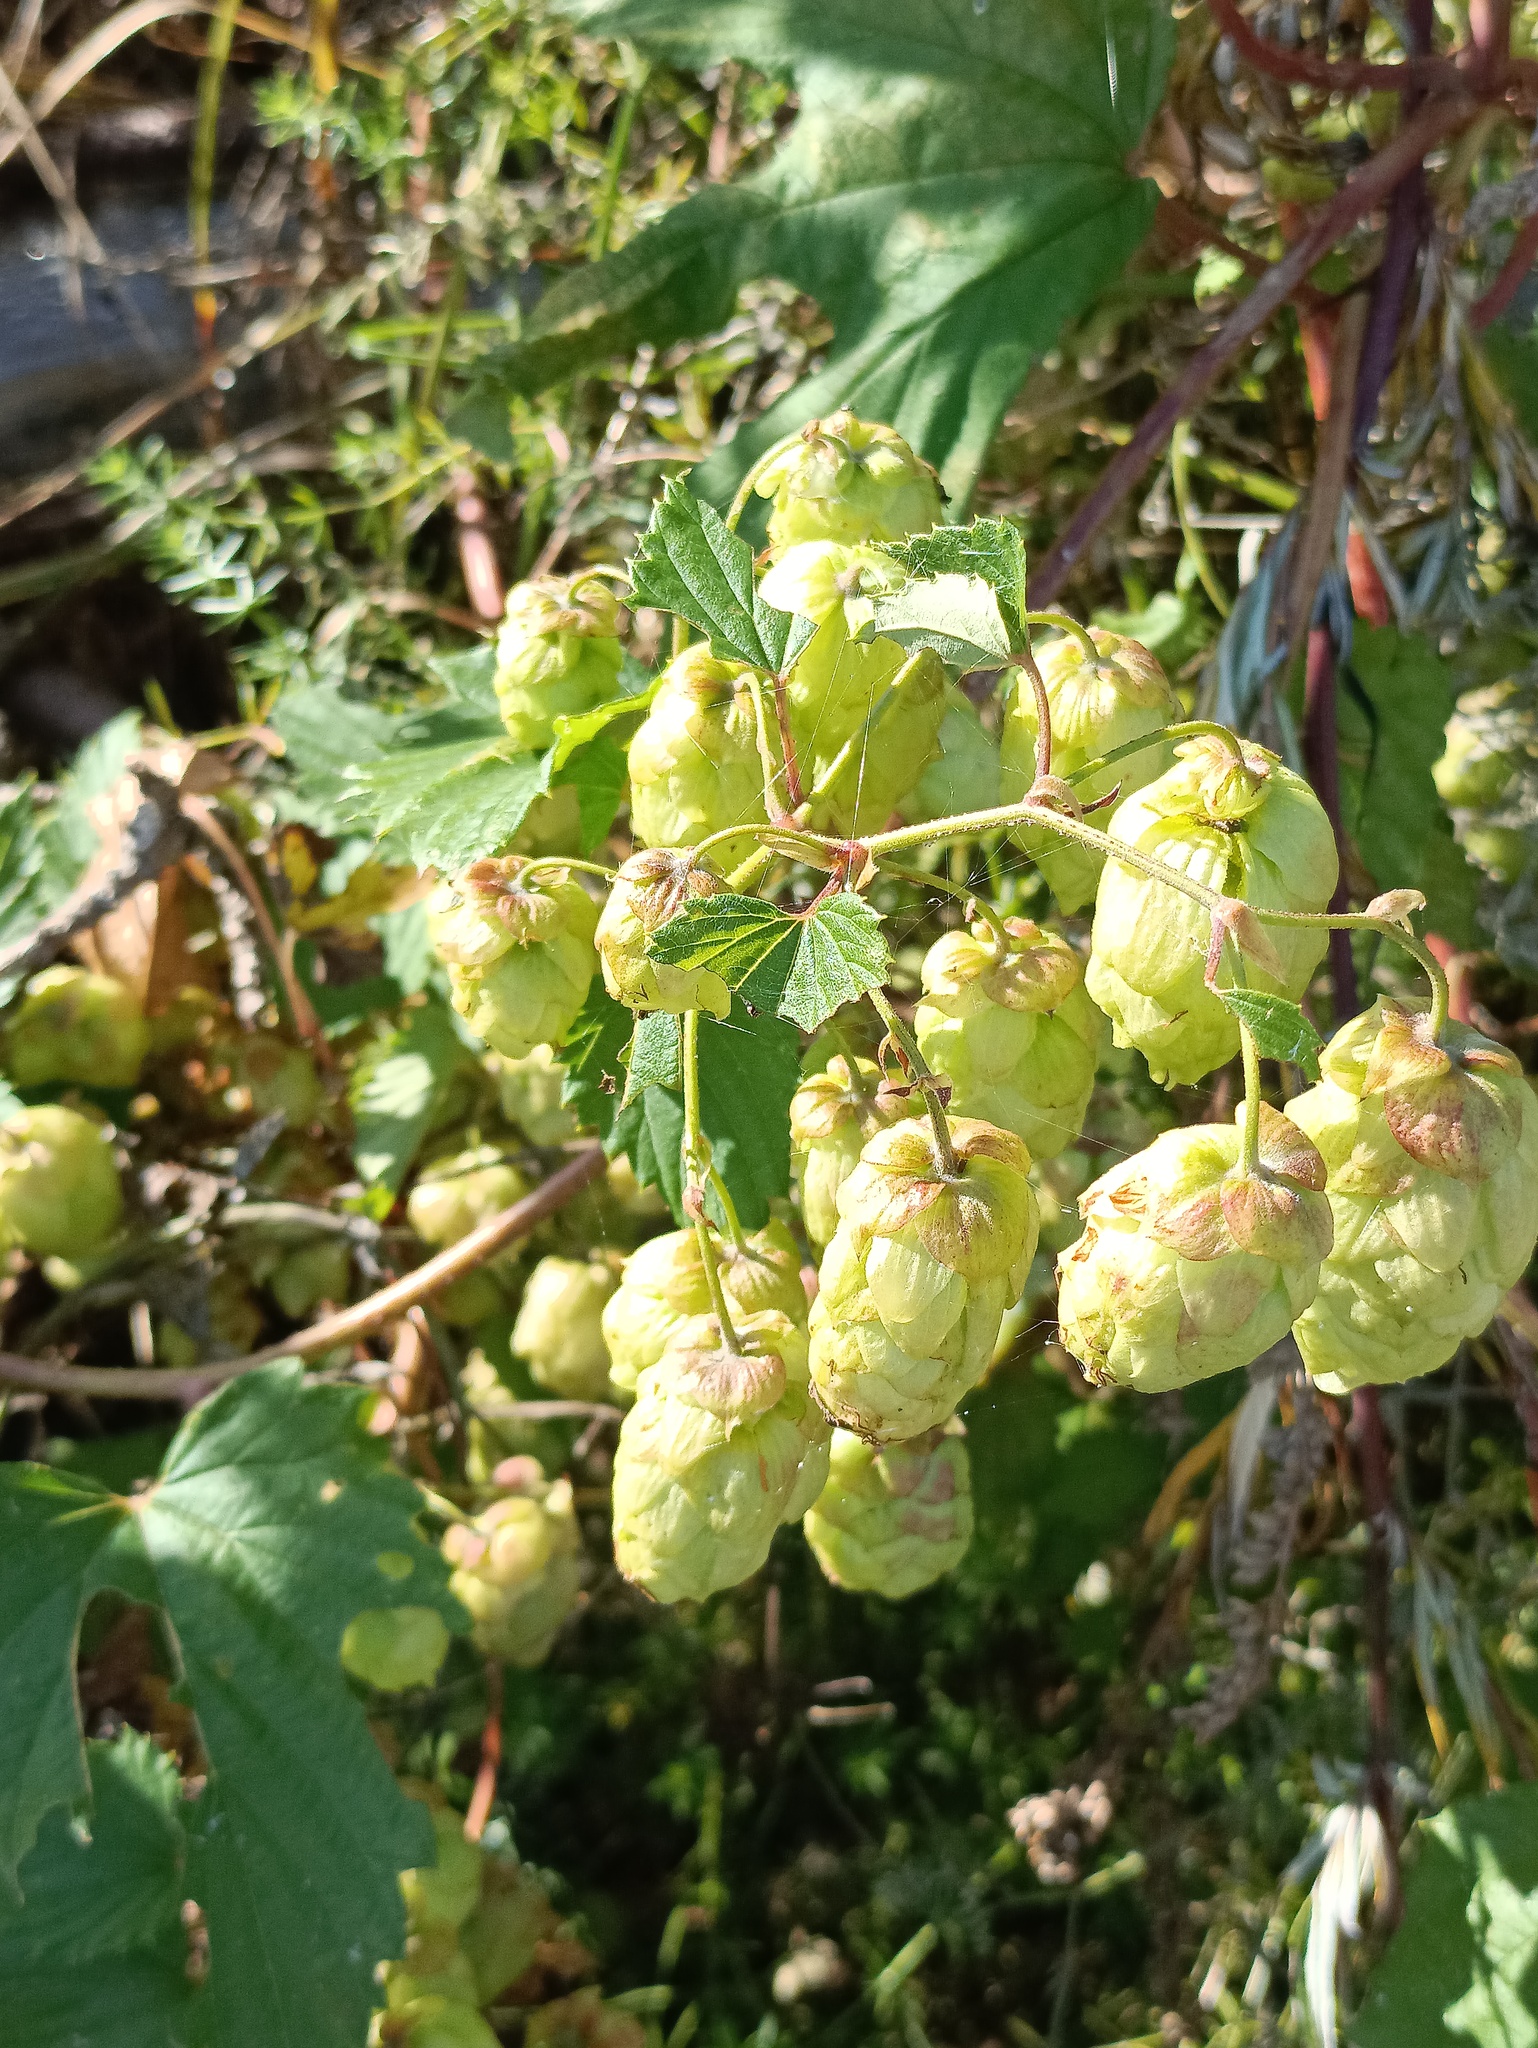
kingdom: Plantae
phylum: Tracheophyta
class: Magnoliopsida
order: Rosales
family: Cannabaceae
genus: Humulus
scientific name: Humulus lupulus
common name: Hop
